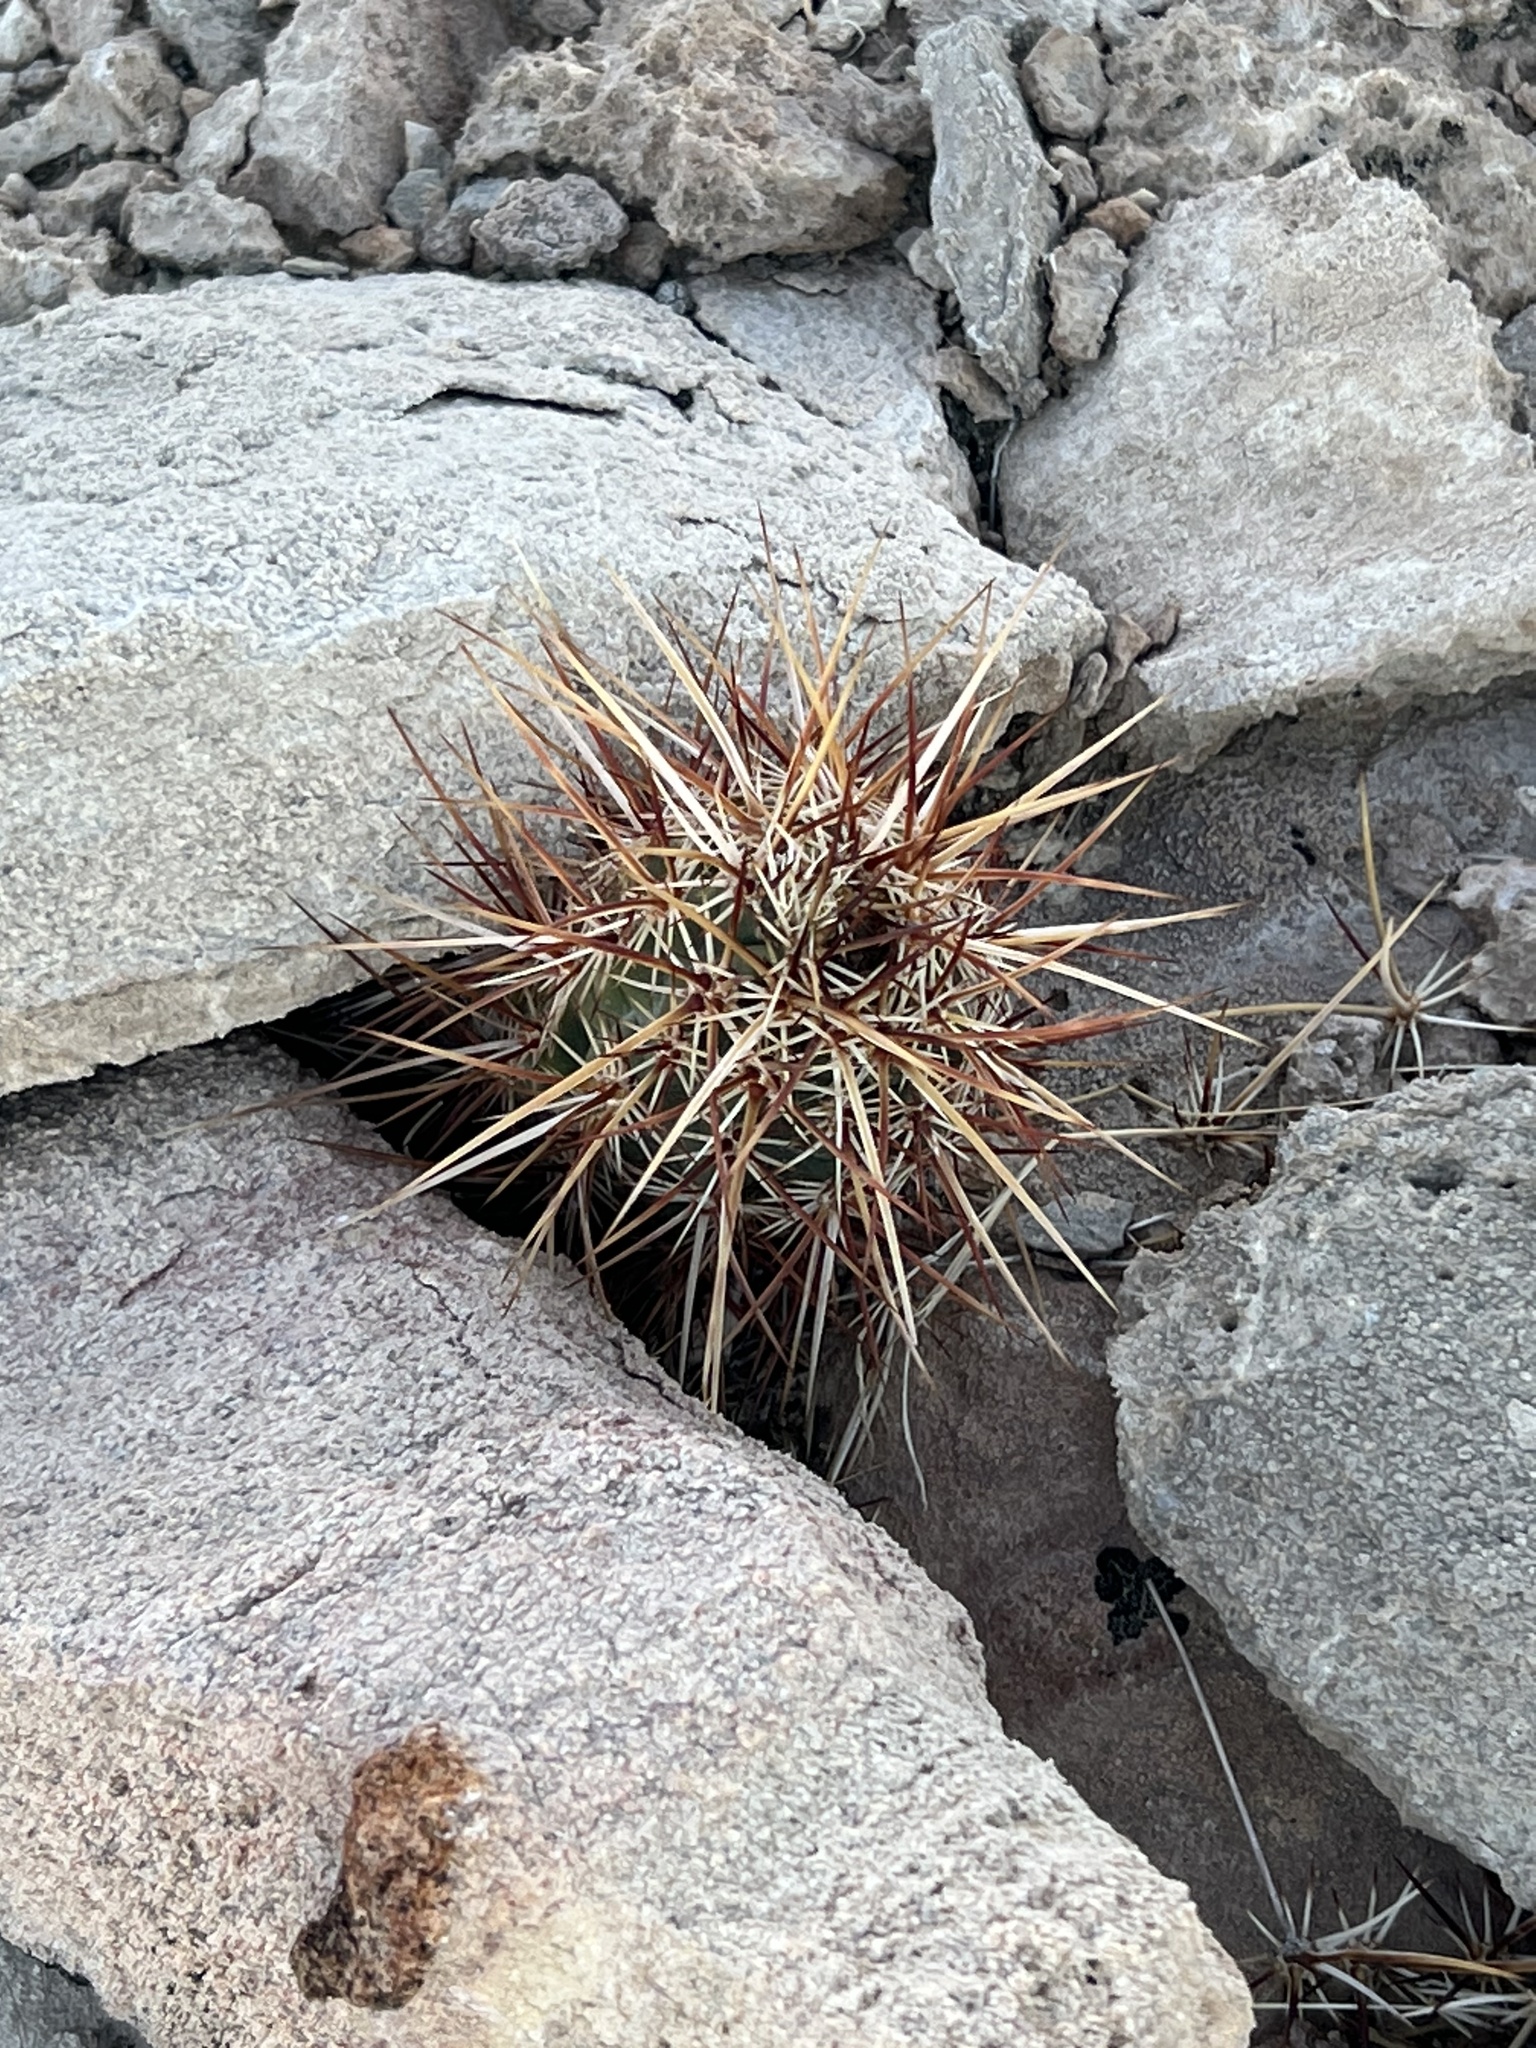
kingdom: Plantae
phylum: Tracheophyta
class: Magnoliopsida
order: Caryophyllales
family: Cactaceae
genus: Echinocereus
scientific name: Echinocereus engelmannii
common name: Engelmann's hedgehog cactus
